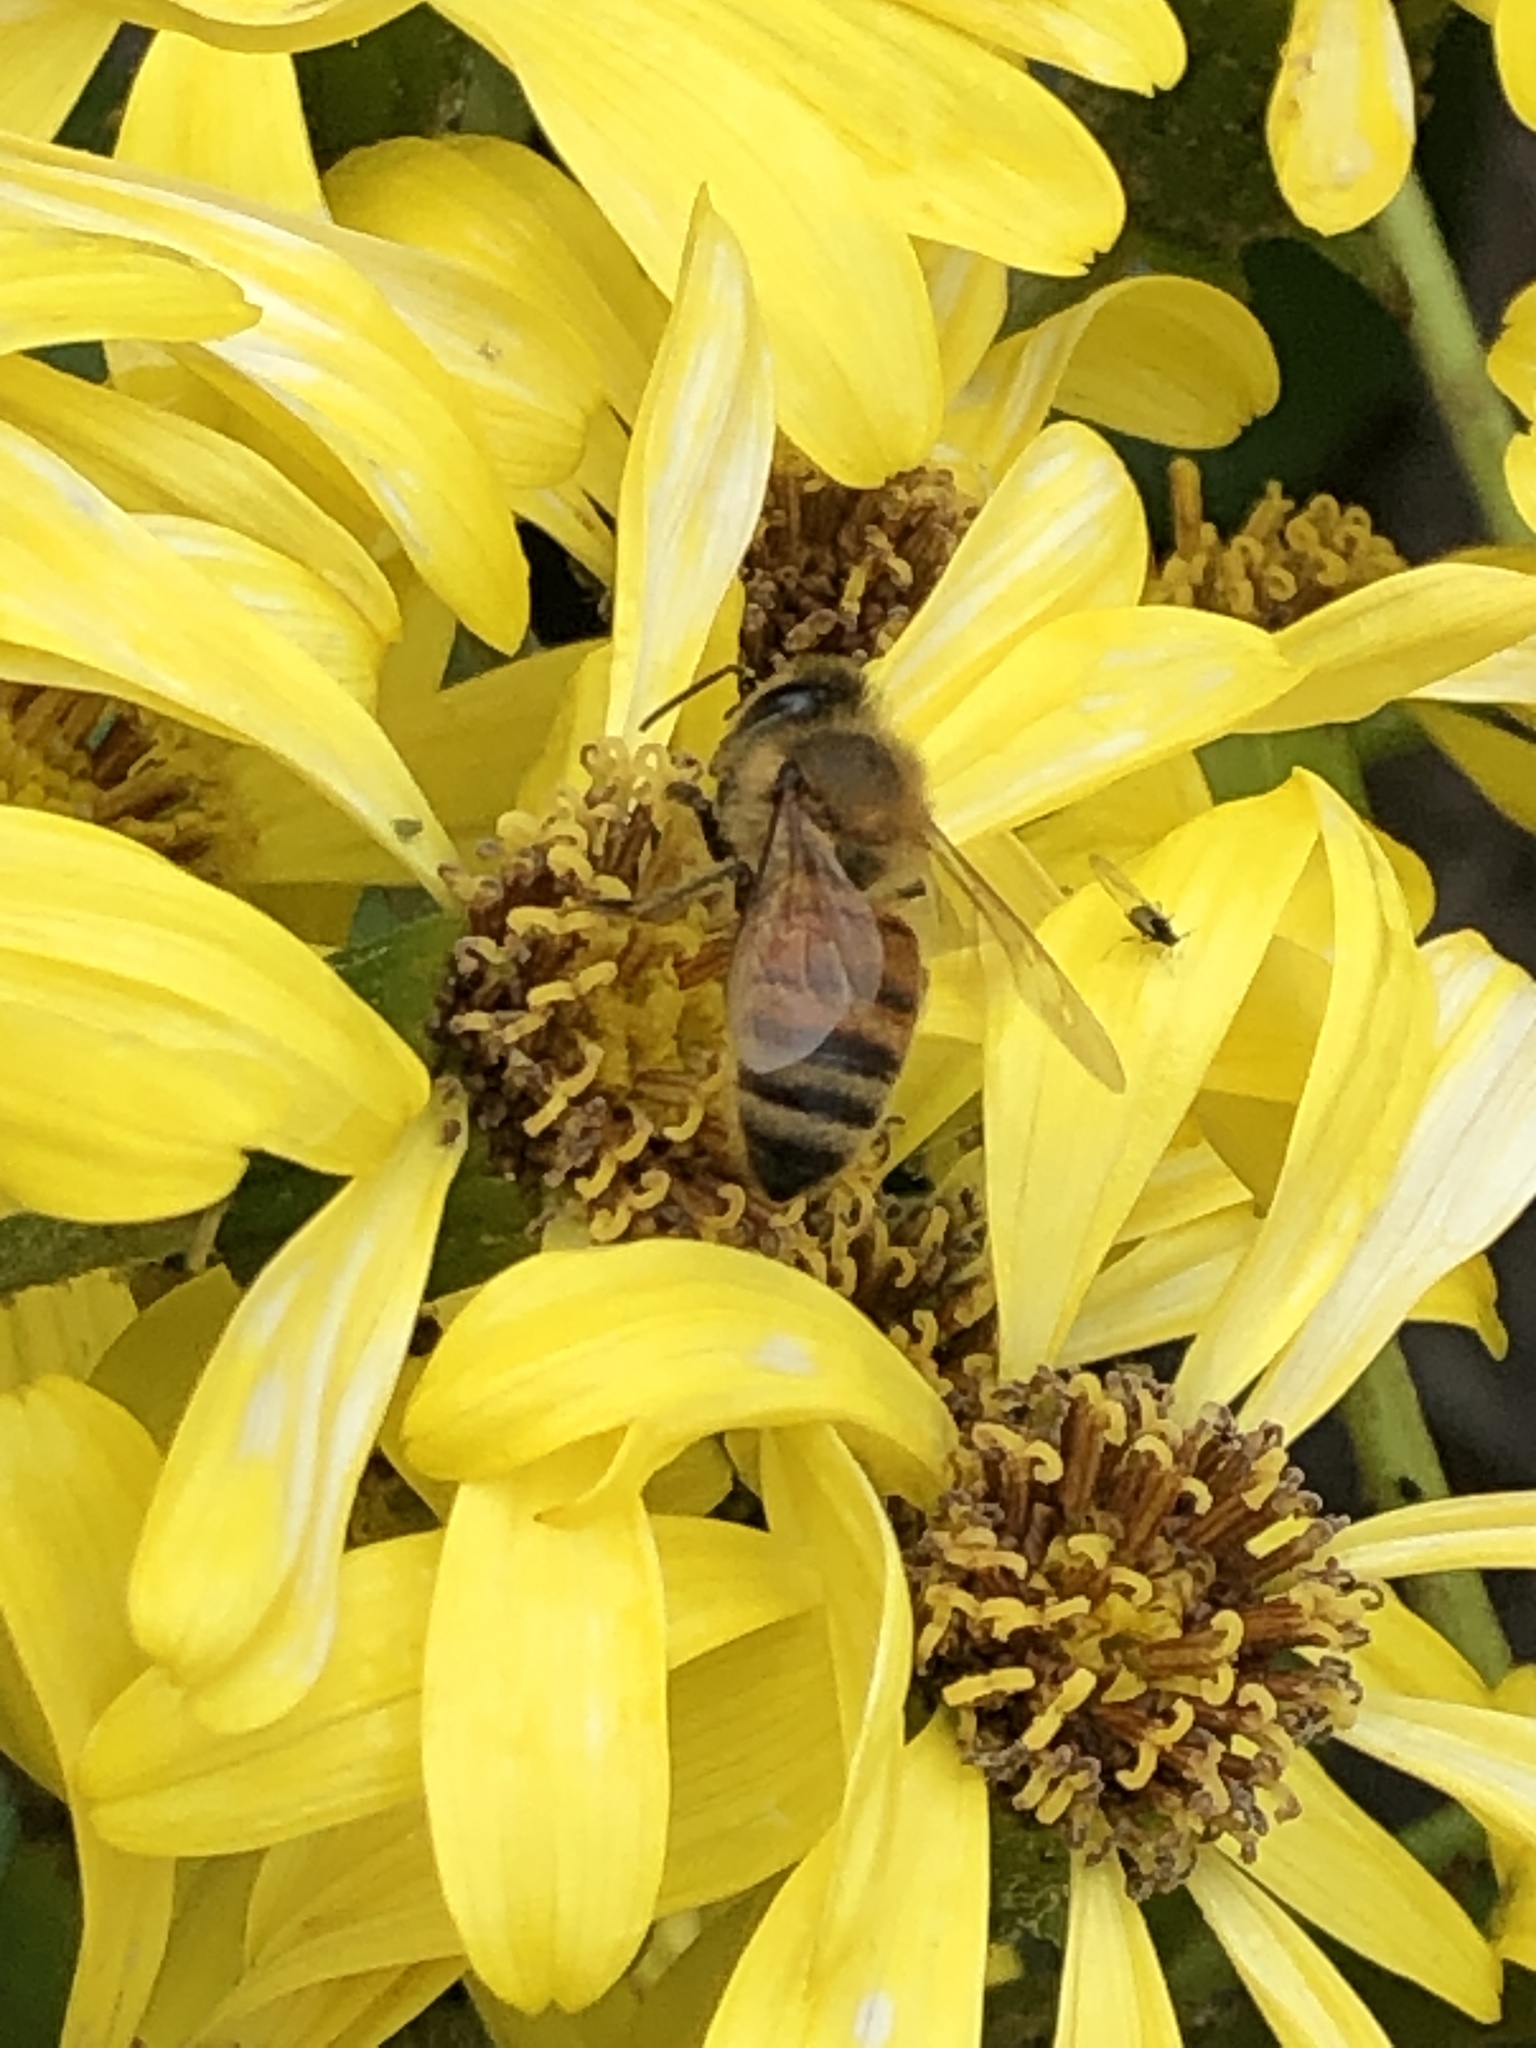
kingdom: Animalia
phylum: Arthropoda
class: Insecta
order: Hymenoptera
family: Apidae
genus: Apis
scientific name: Apis mellifera
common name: Honey bee
